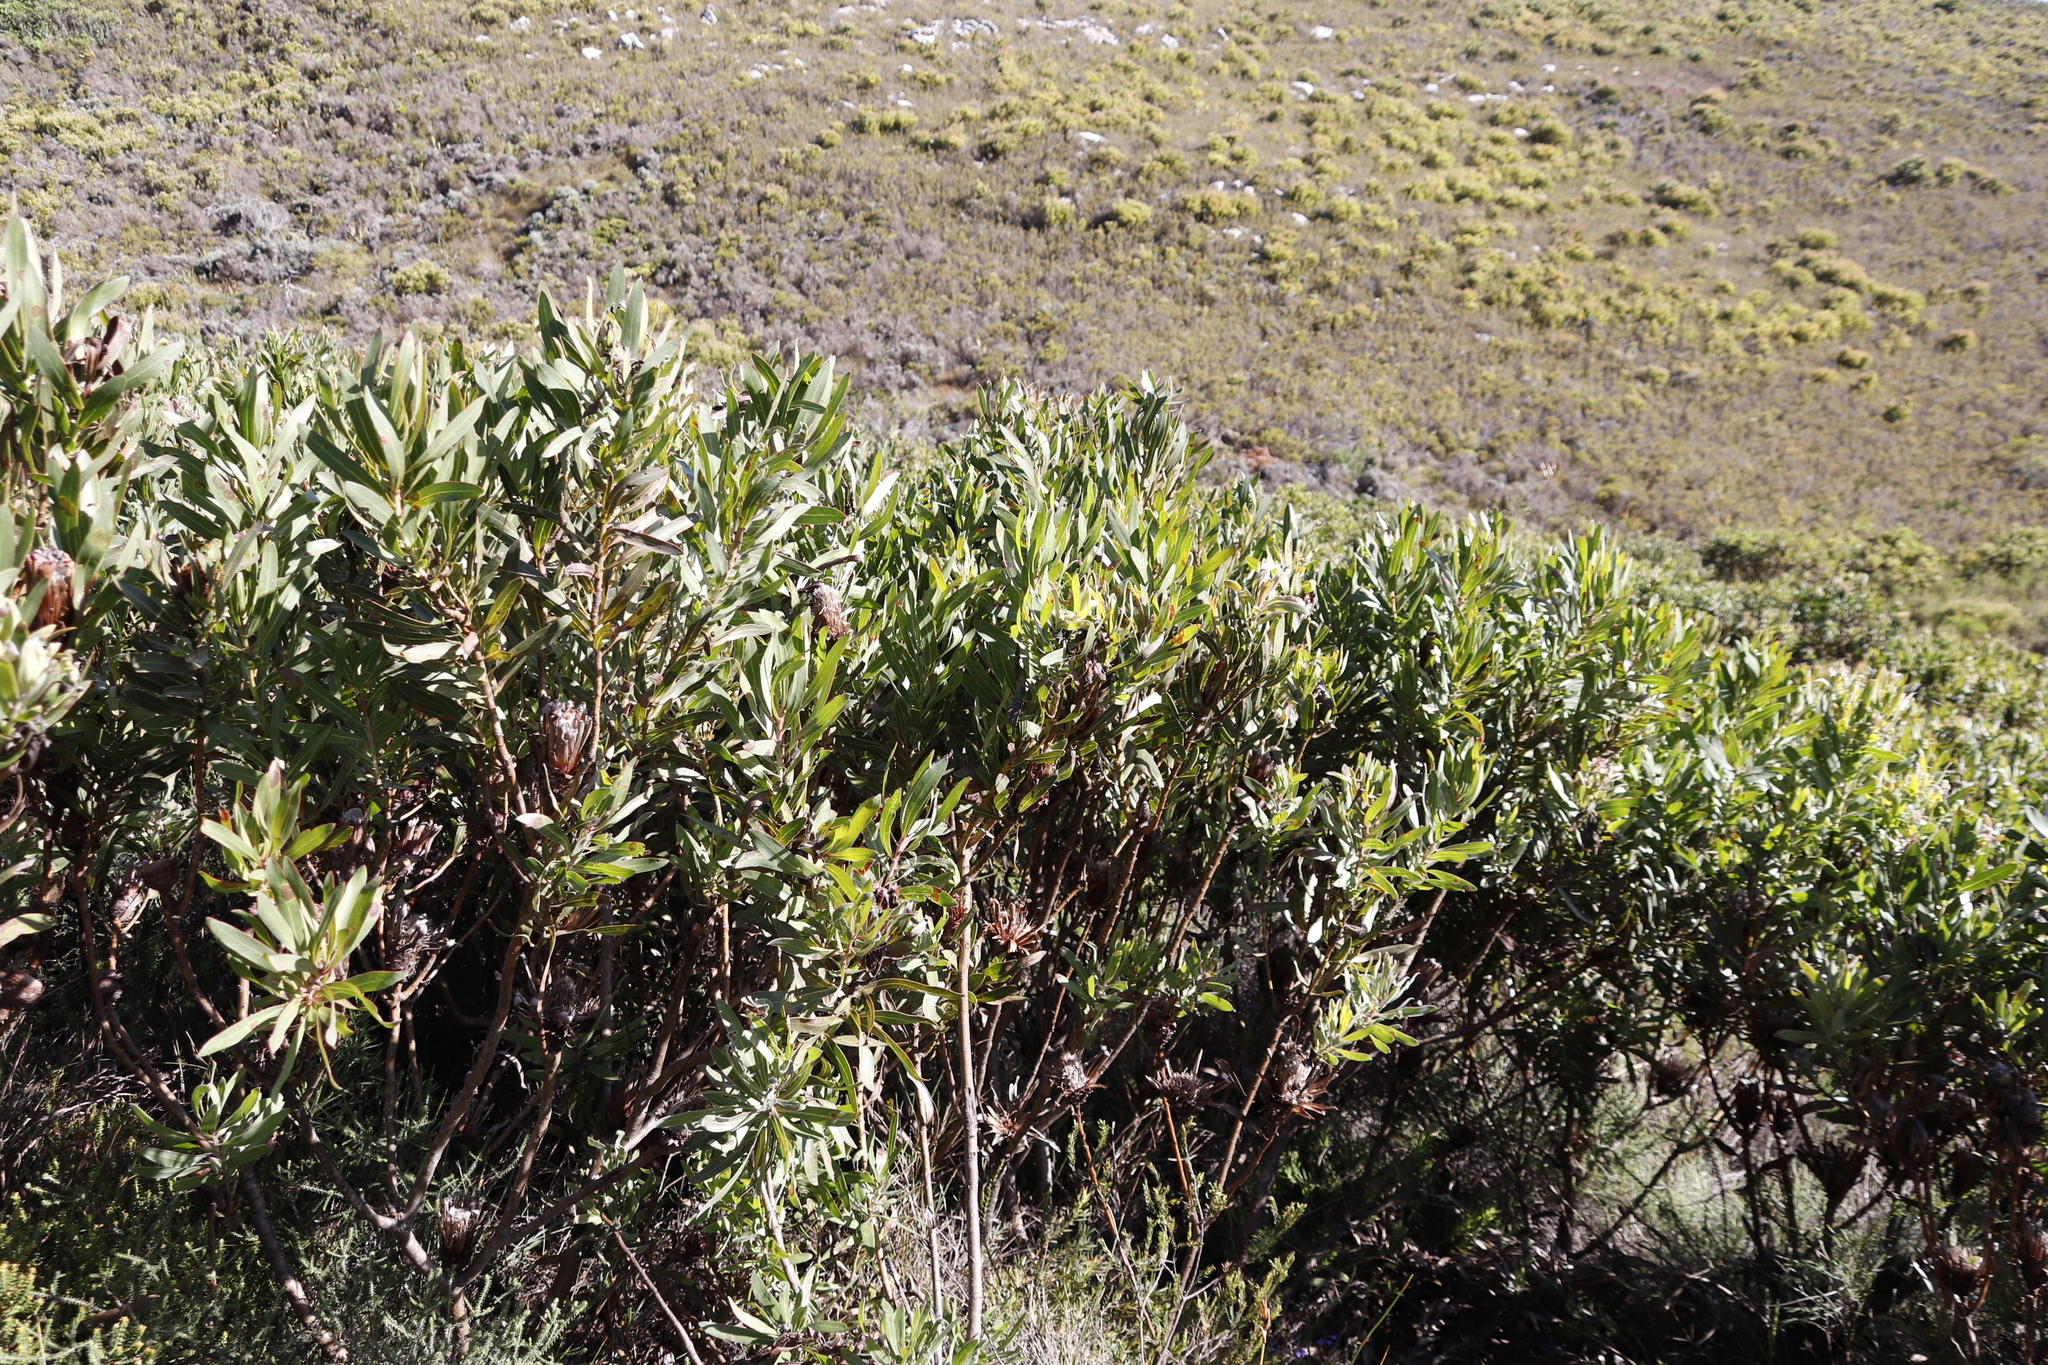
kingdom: Plantae
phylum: Tracheophyta
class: Magnoliopsida
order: Proteales
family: Proteaceae
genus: Protea
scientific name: Protea lepidocarpodendron
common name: Black-bearded protea
